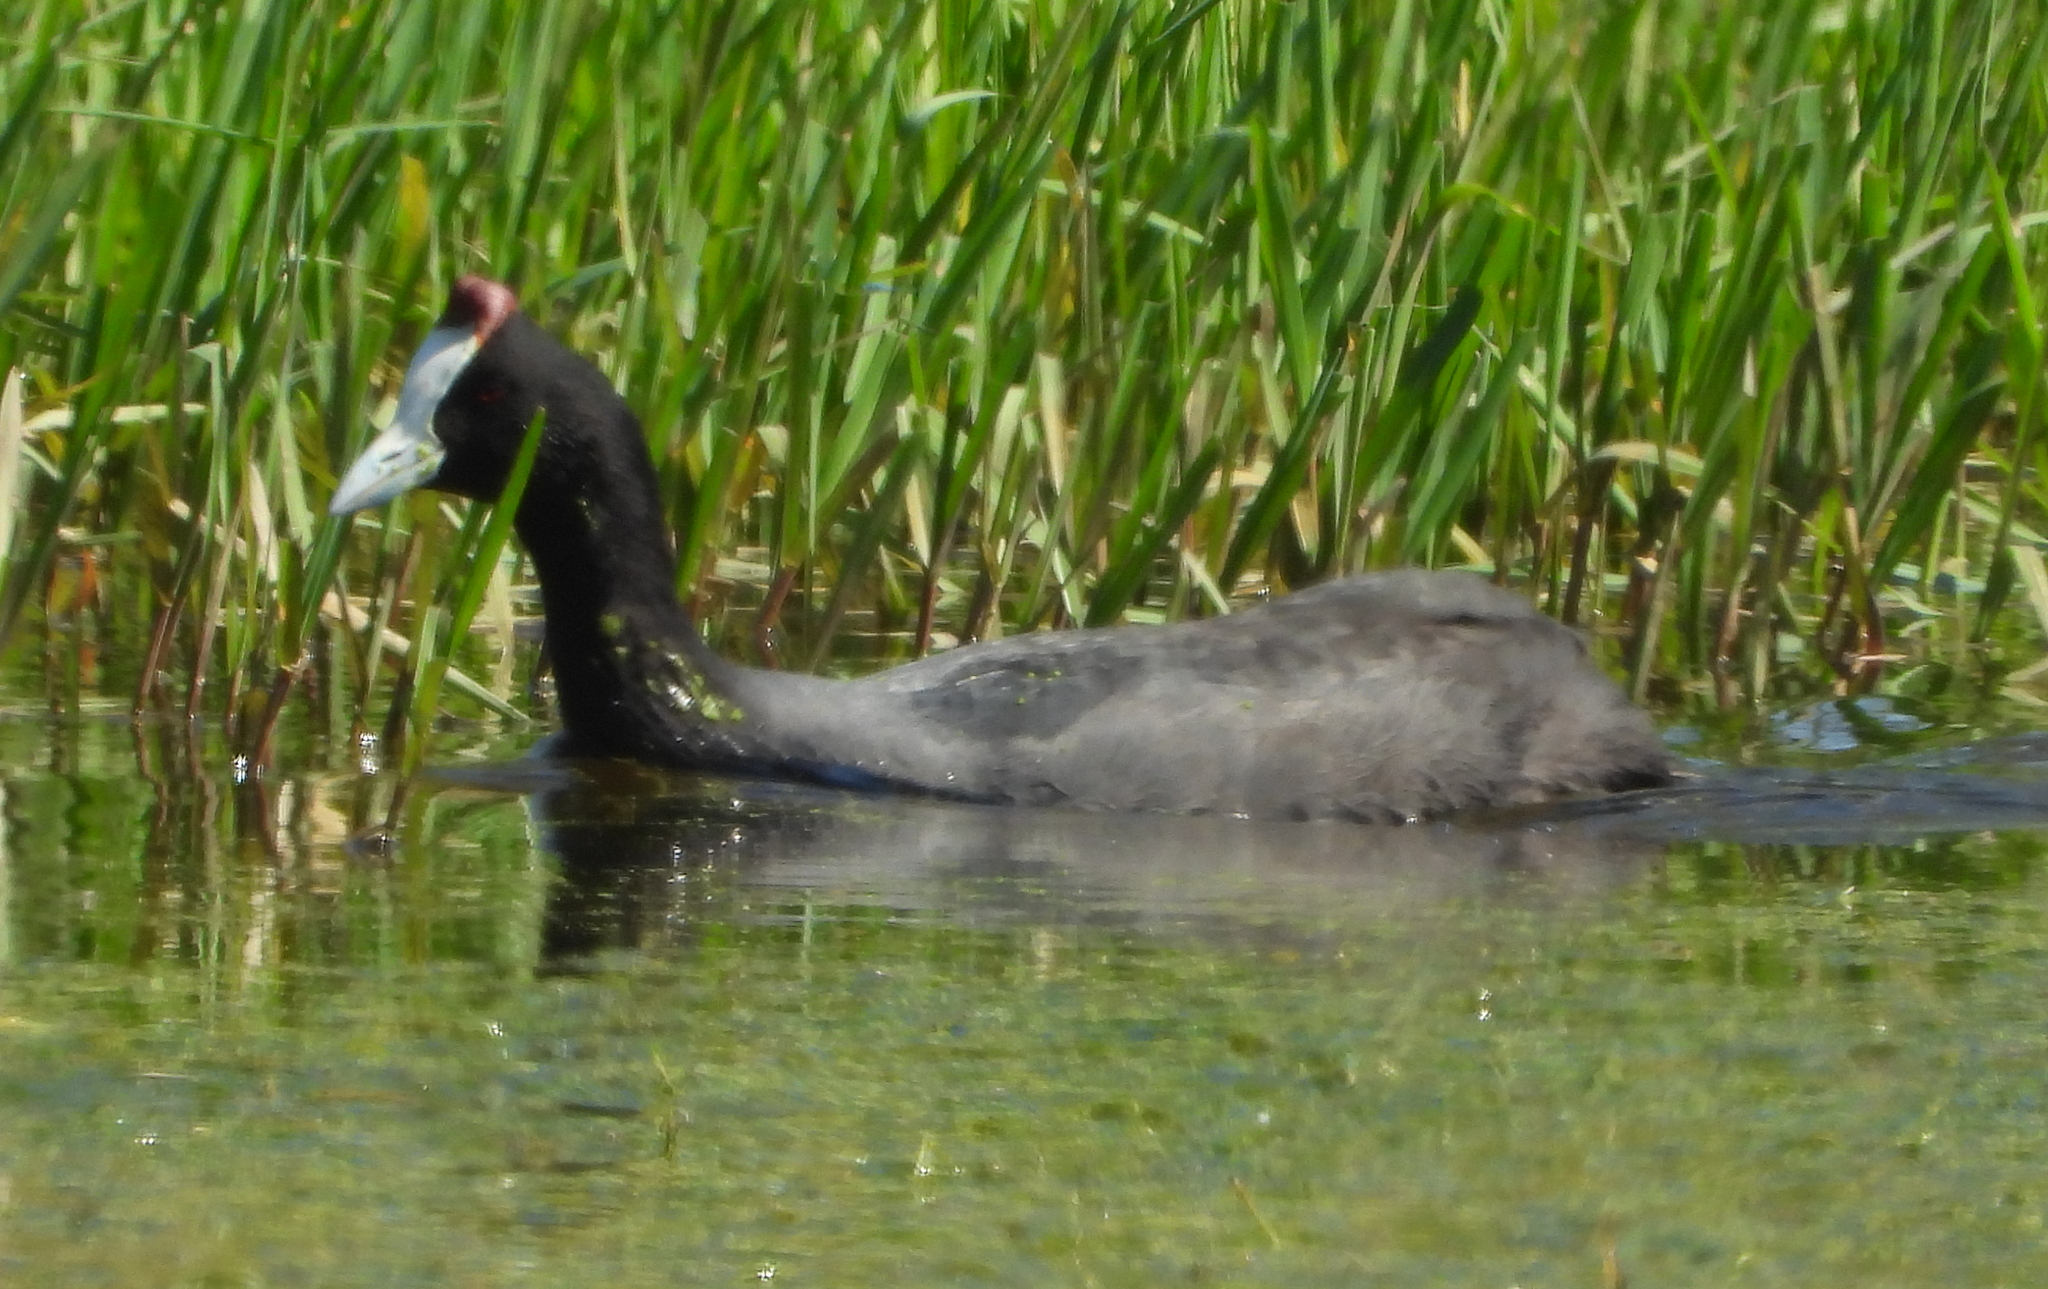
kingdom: Animalia
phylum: Chordata
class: Aves
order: Gruiformes
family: Rallidae
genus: Fulica
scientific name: Fulica cristata
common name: Red-knobbed coot
